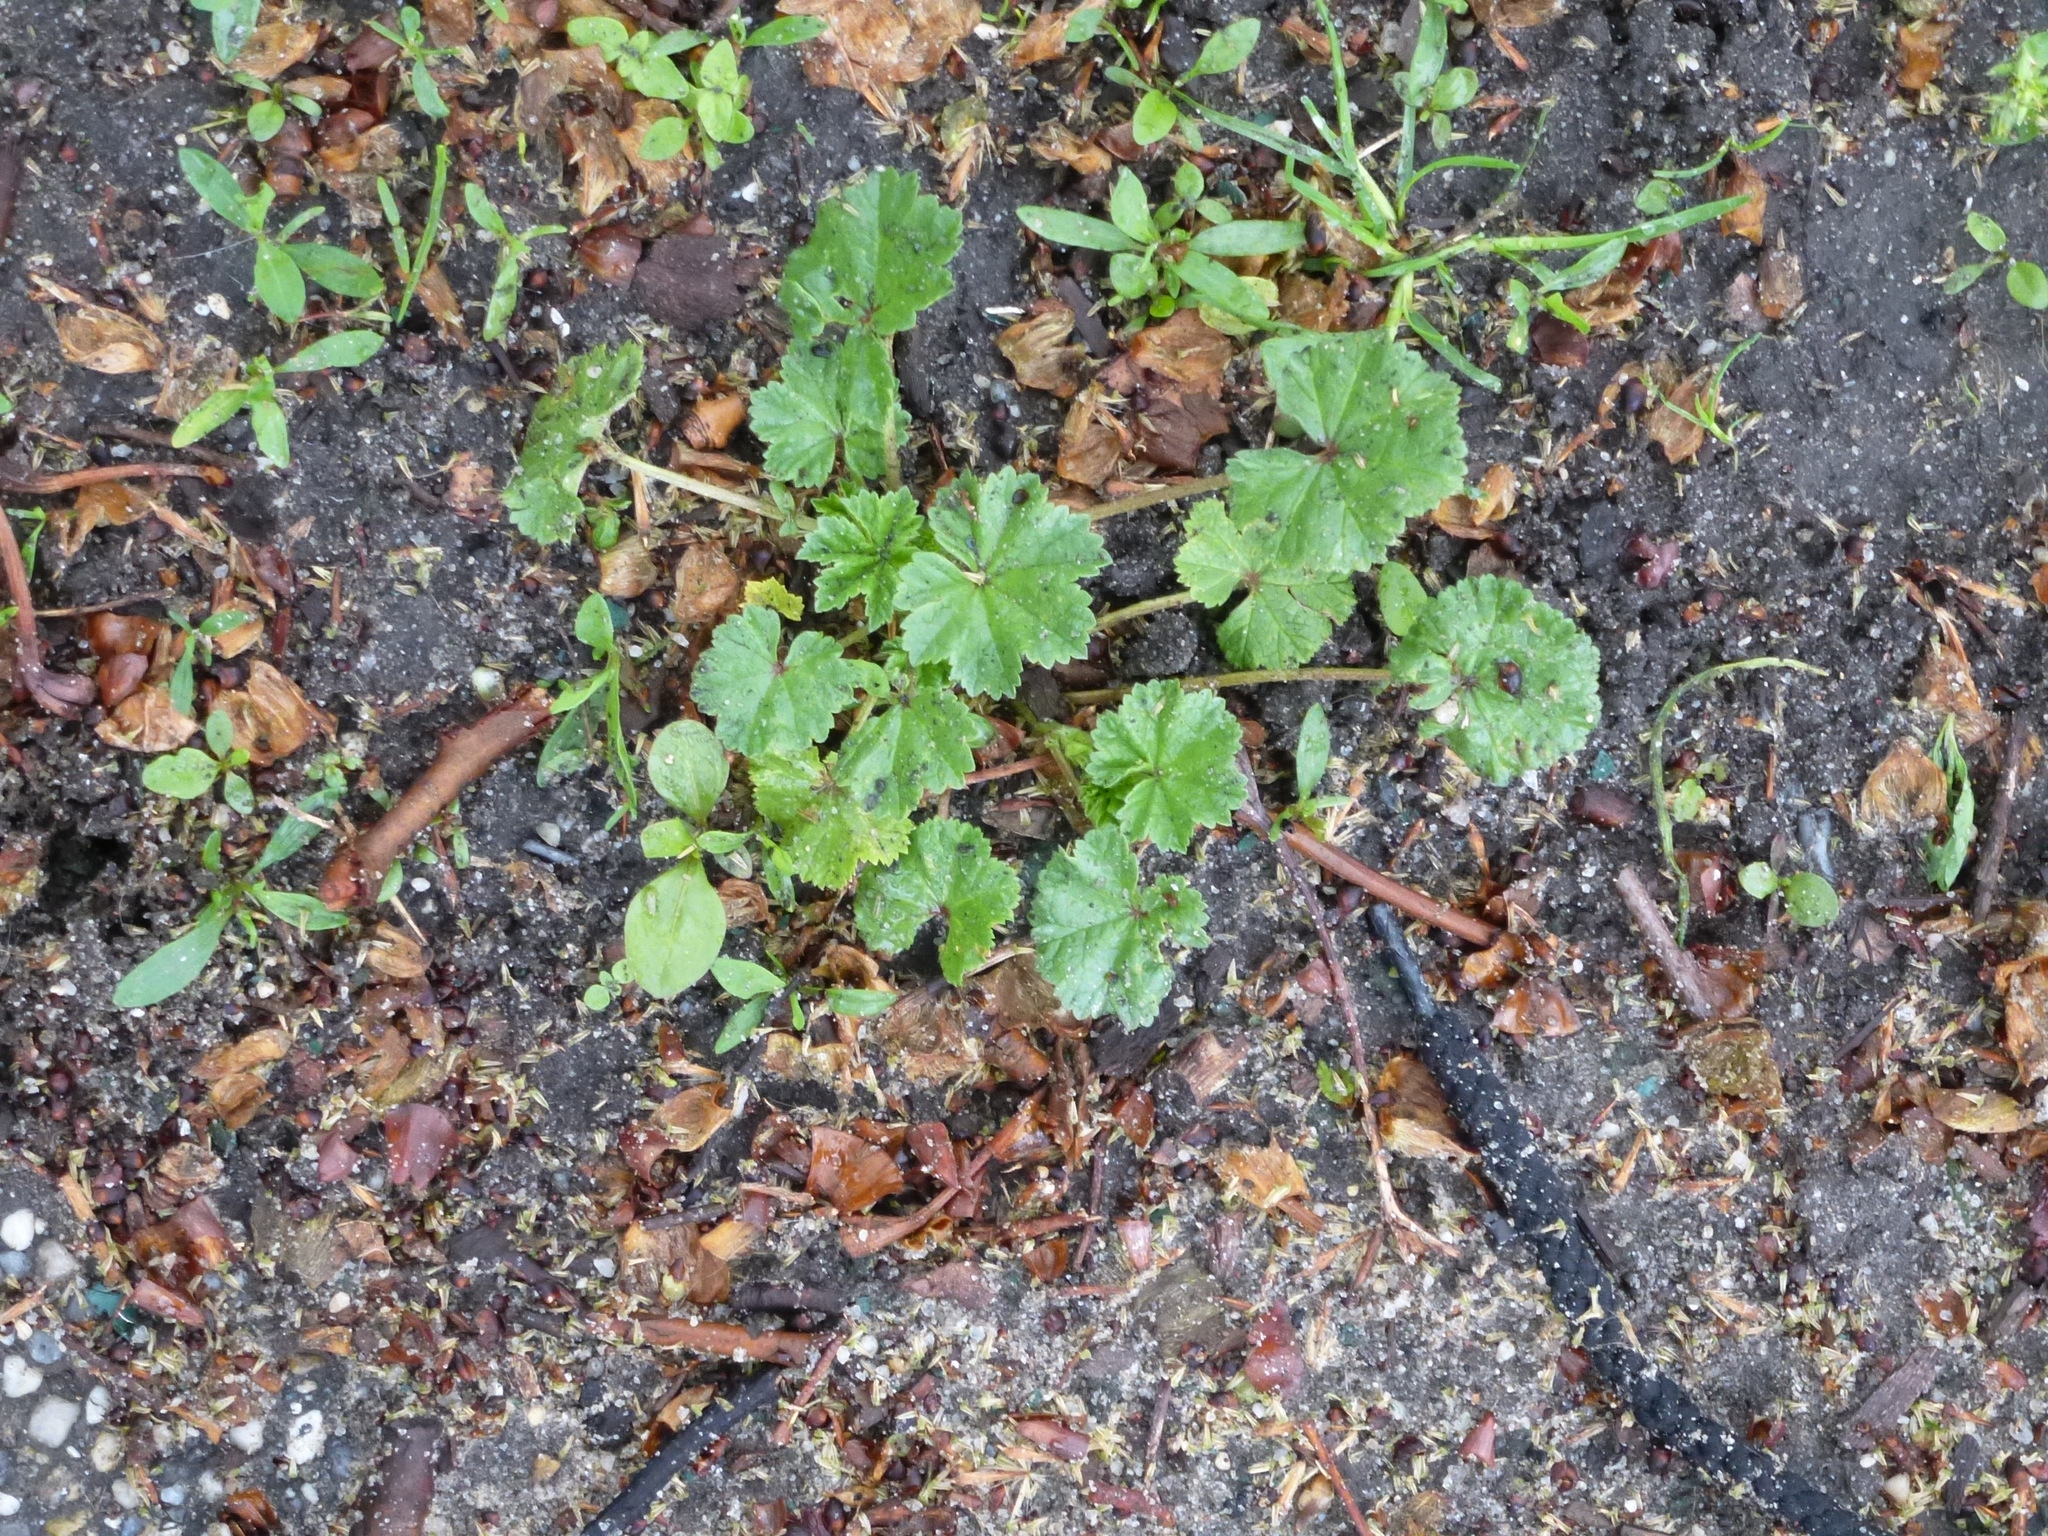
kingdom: Plantae
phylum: Tracheophyta
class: Magnoliopsida
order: Malvales
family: Malvaceae
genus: Malva
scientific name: Malva neglecta
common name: Common mallow
